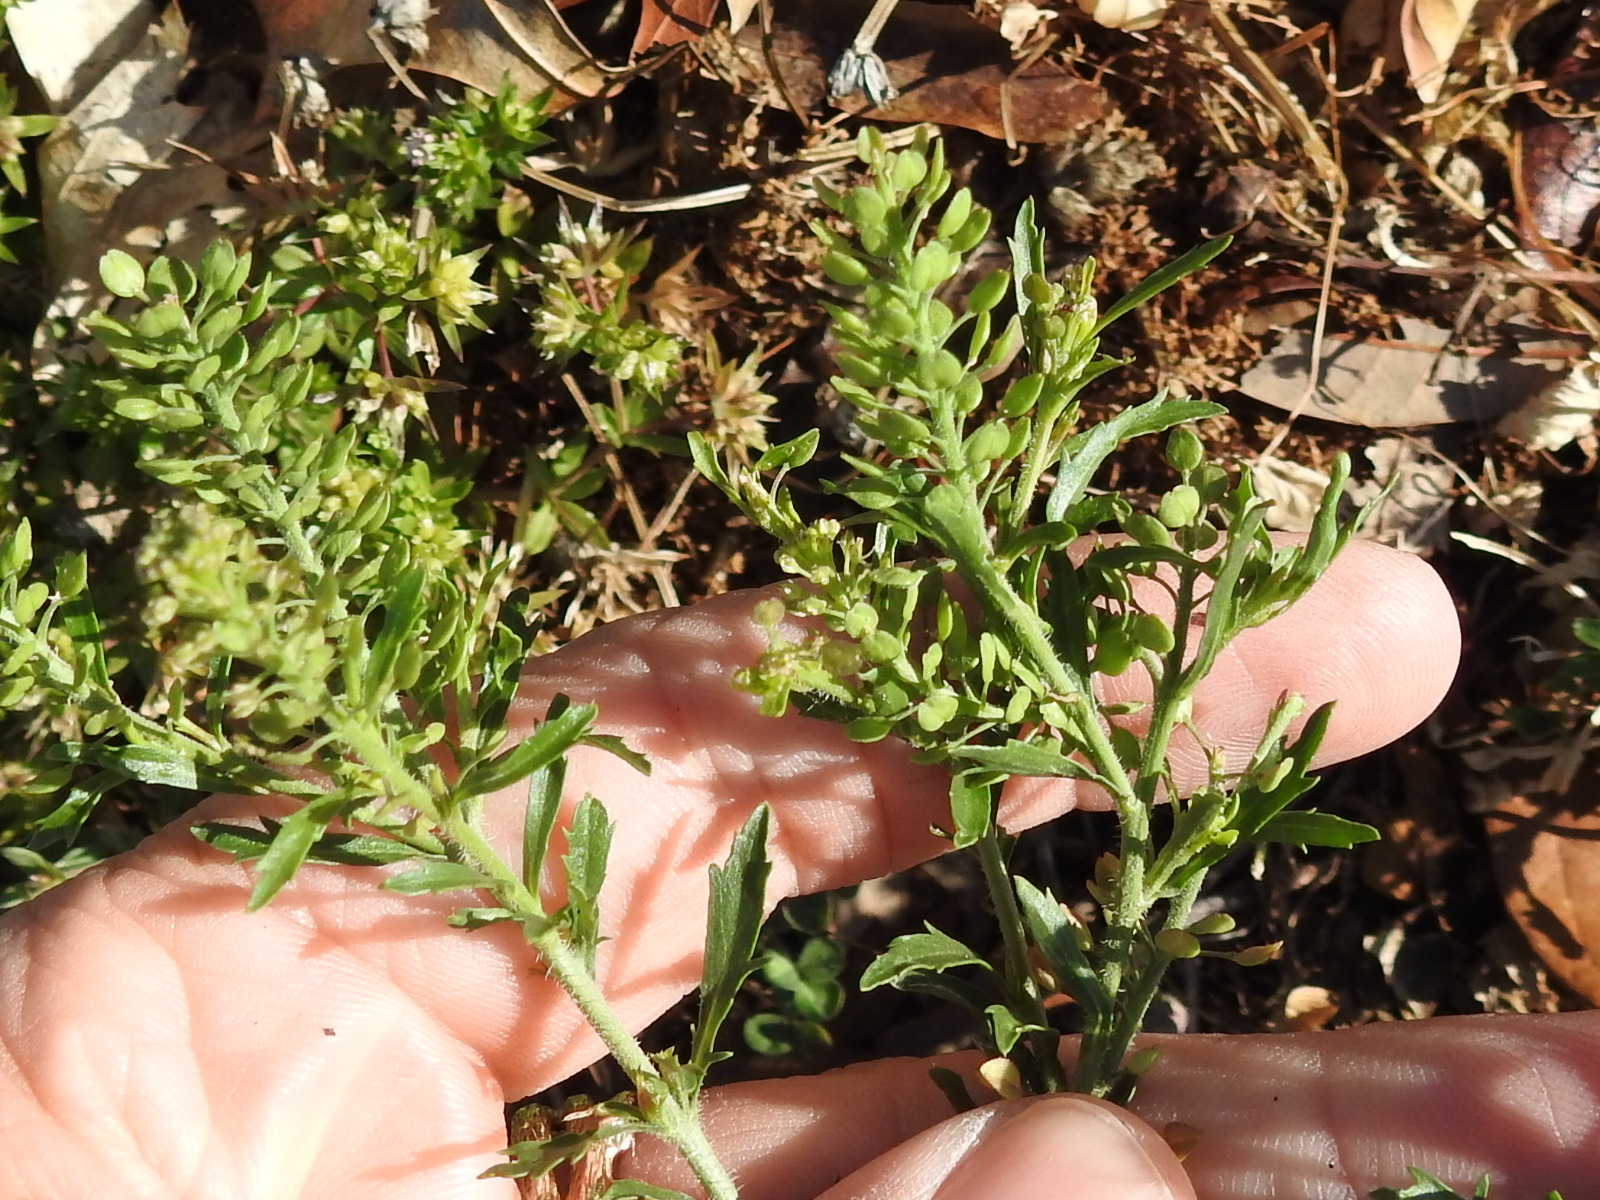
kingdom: Plantae
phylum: Tracheophyta
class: Magnoliopsida
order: Brassicales
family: Brassicaceae
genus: Lepidium
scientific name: Lepidium virginicum
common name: Least pepperwort
